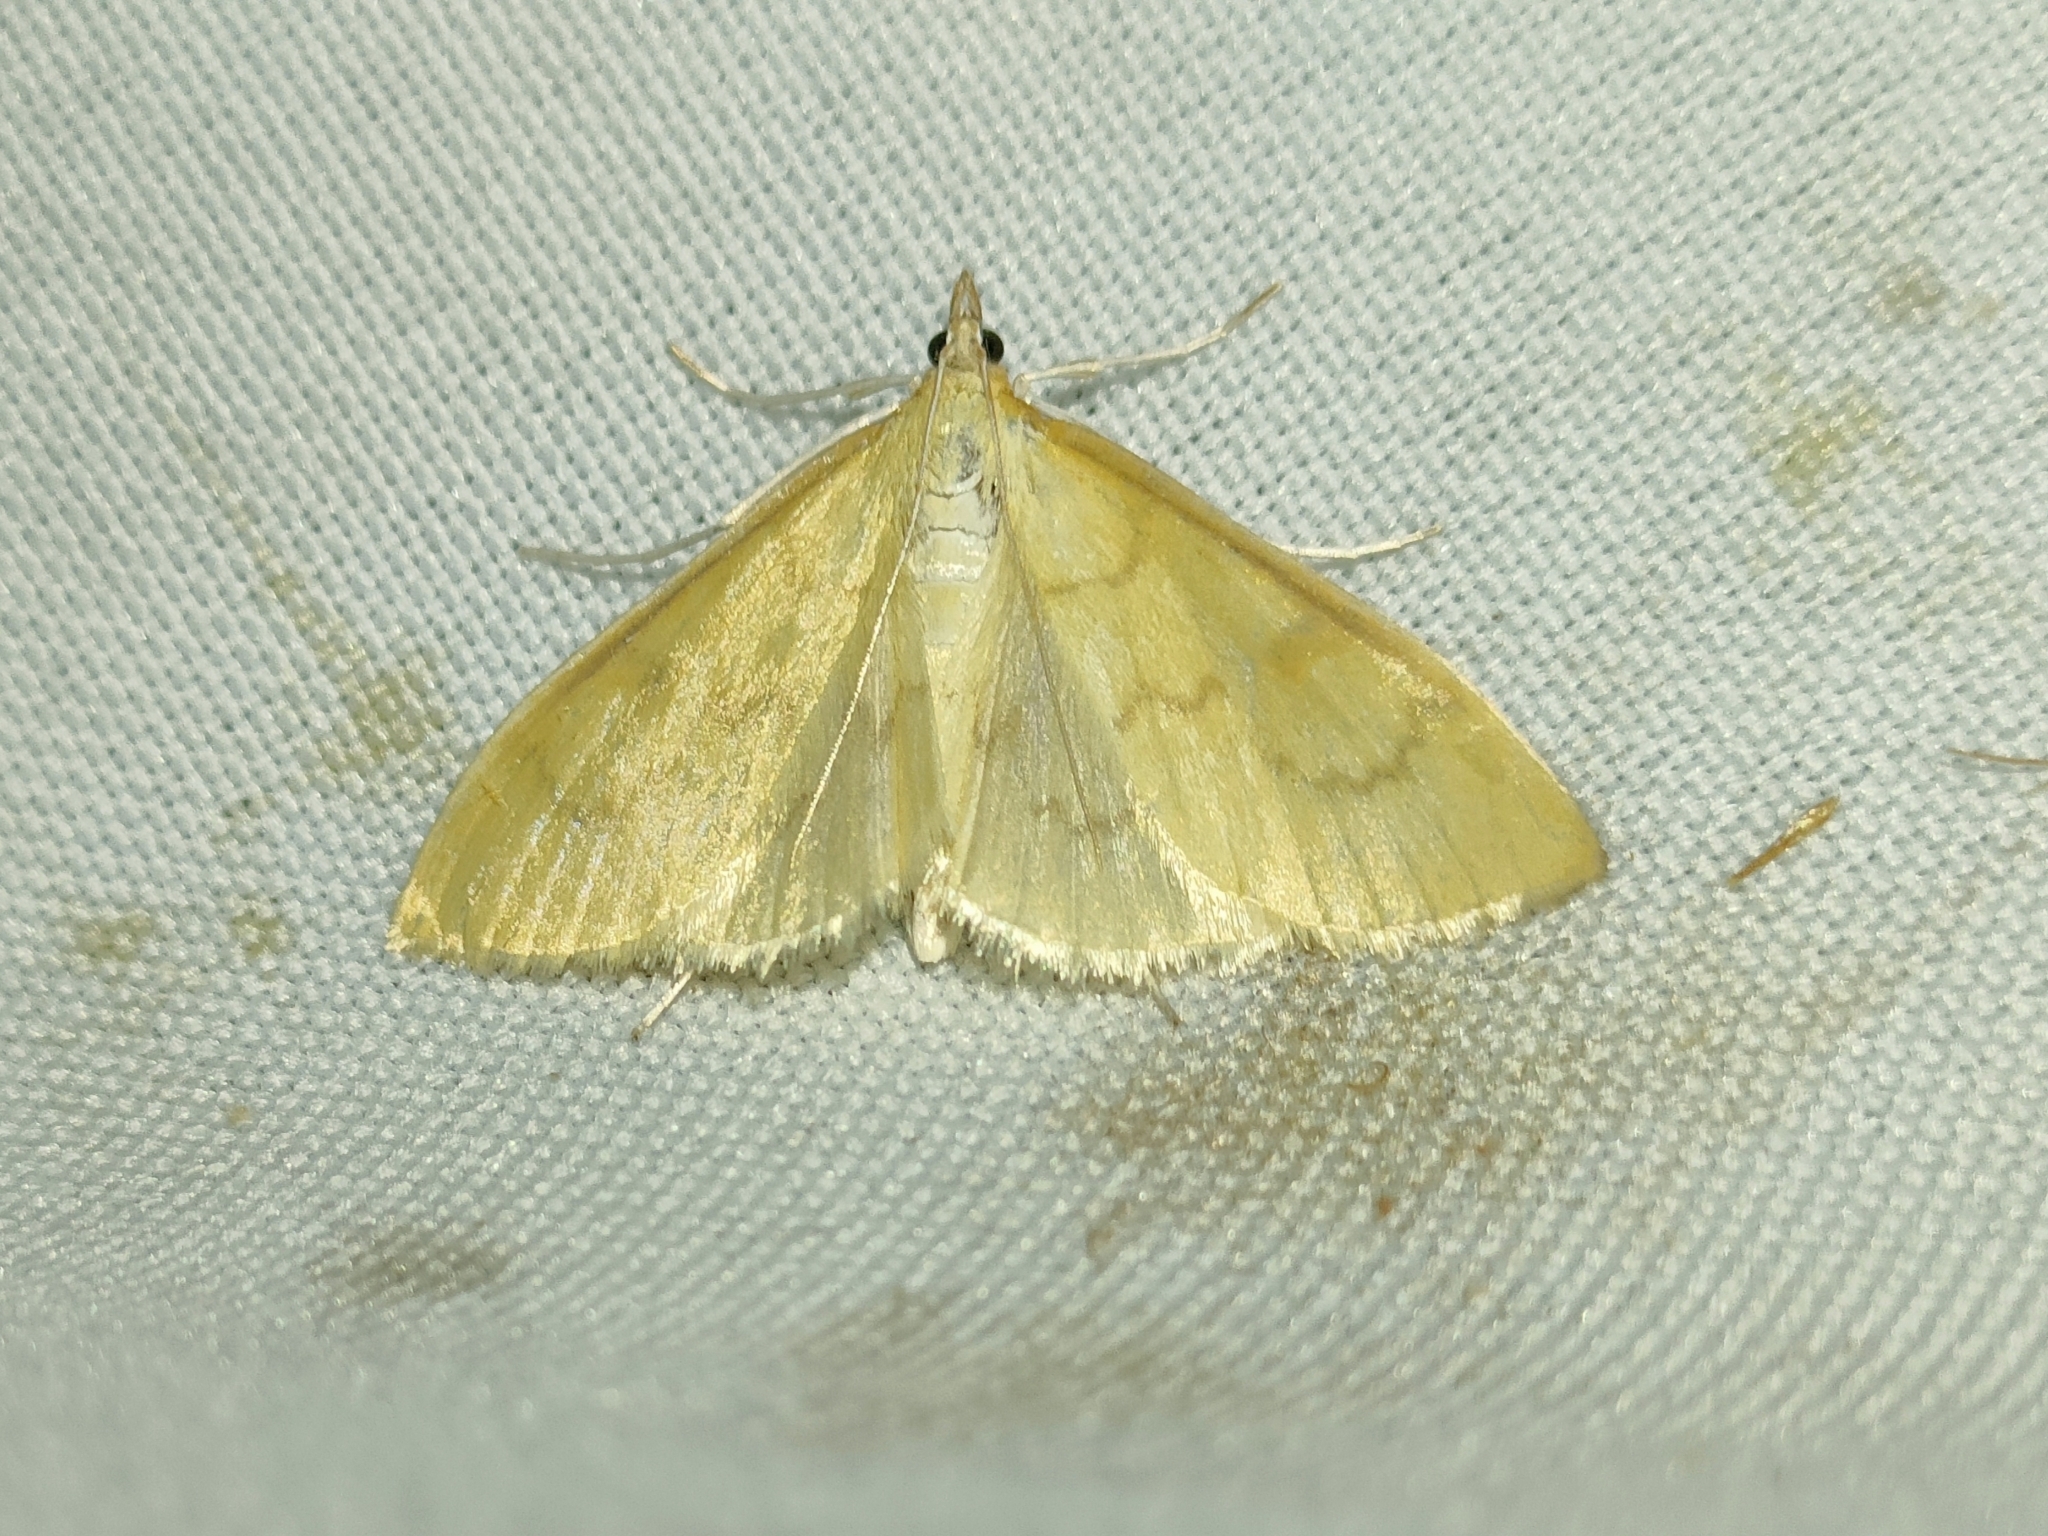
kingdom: Animalia
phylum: Arthropoda
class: Insecta
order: Lepidoptera
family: Crambidae
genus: Paratalanta
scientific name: Paratalanta hyalinalis
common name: Translucent pearl
